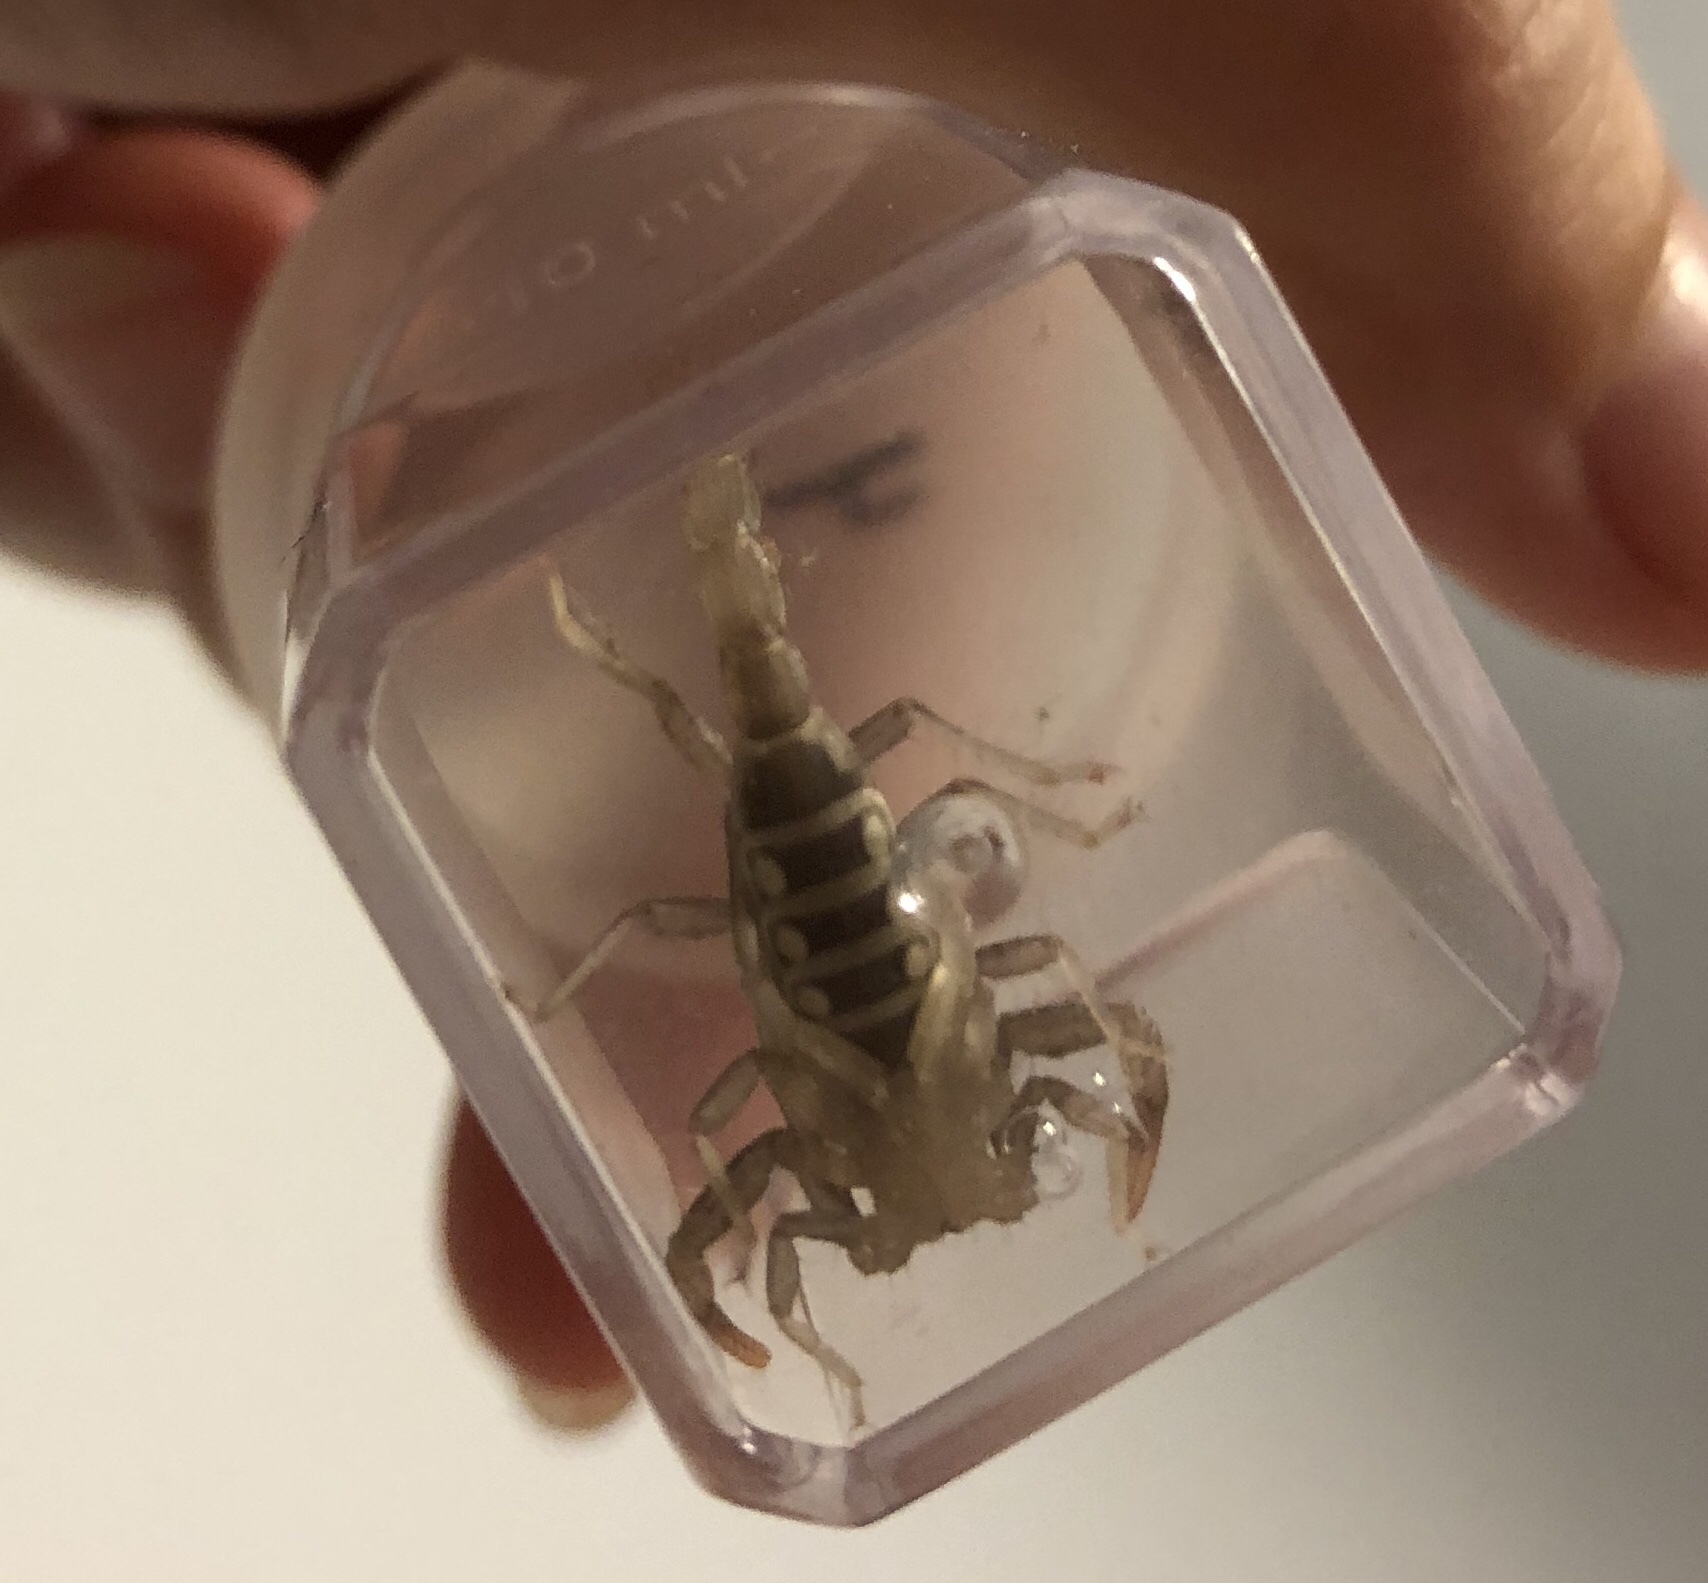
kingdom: Animalia
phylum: Arthropoda
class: Arachnida
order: Scorpiones
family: Vaejovidae
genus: Paravaejovis
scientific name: Paravaejovis puritanus
